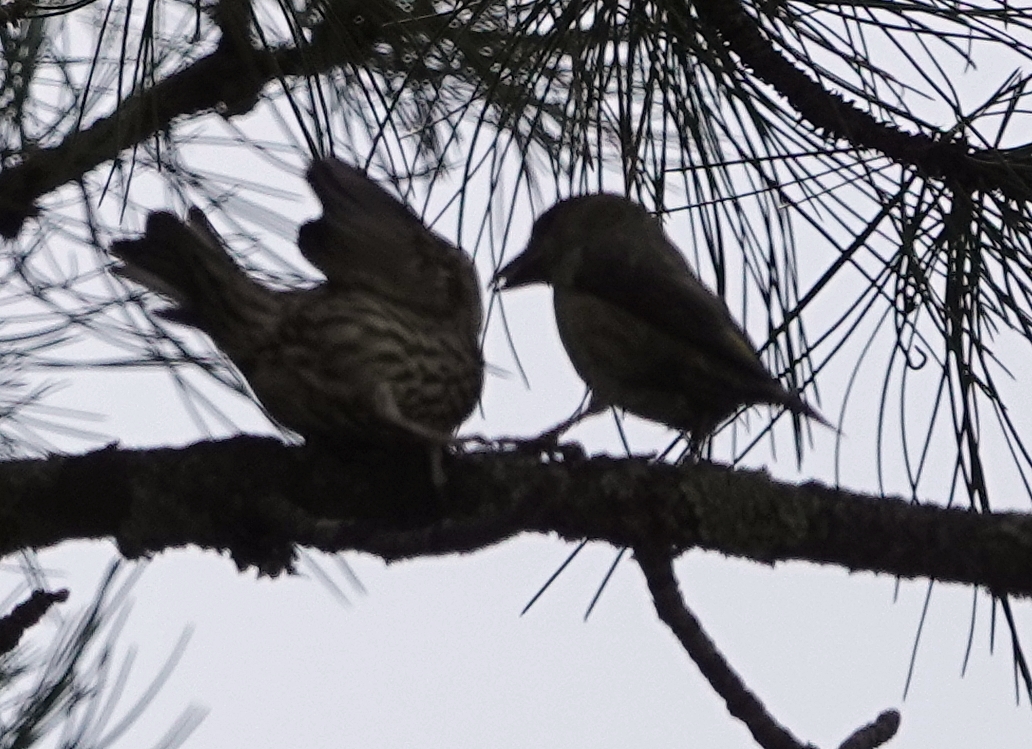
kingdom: Animalia
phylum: Chordata
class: Aves
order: Passeriformes
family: Fringillidae
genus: Loxia
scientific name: Loxia curvirostra
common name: Red crossbill
